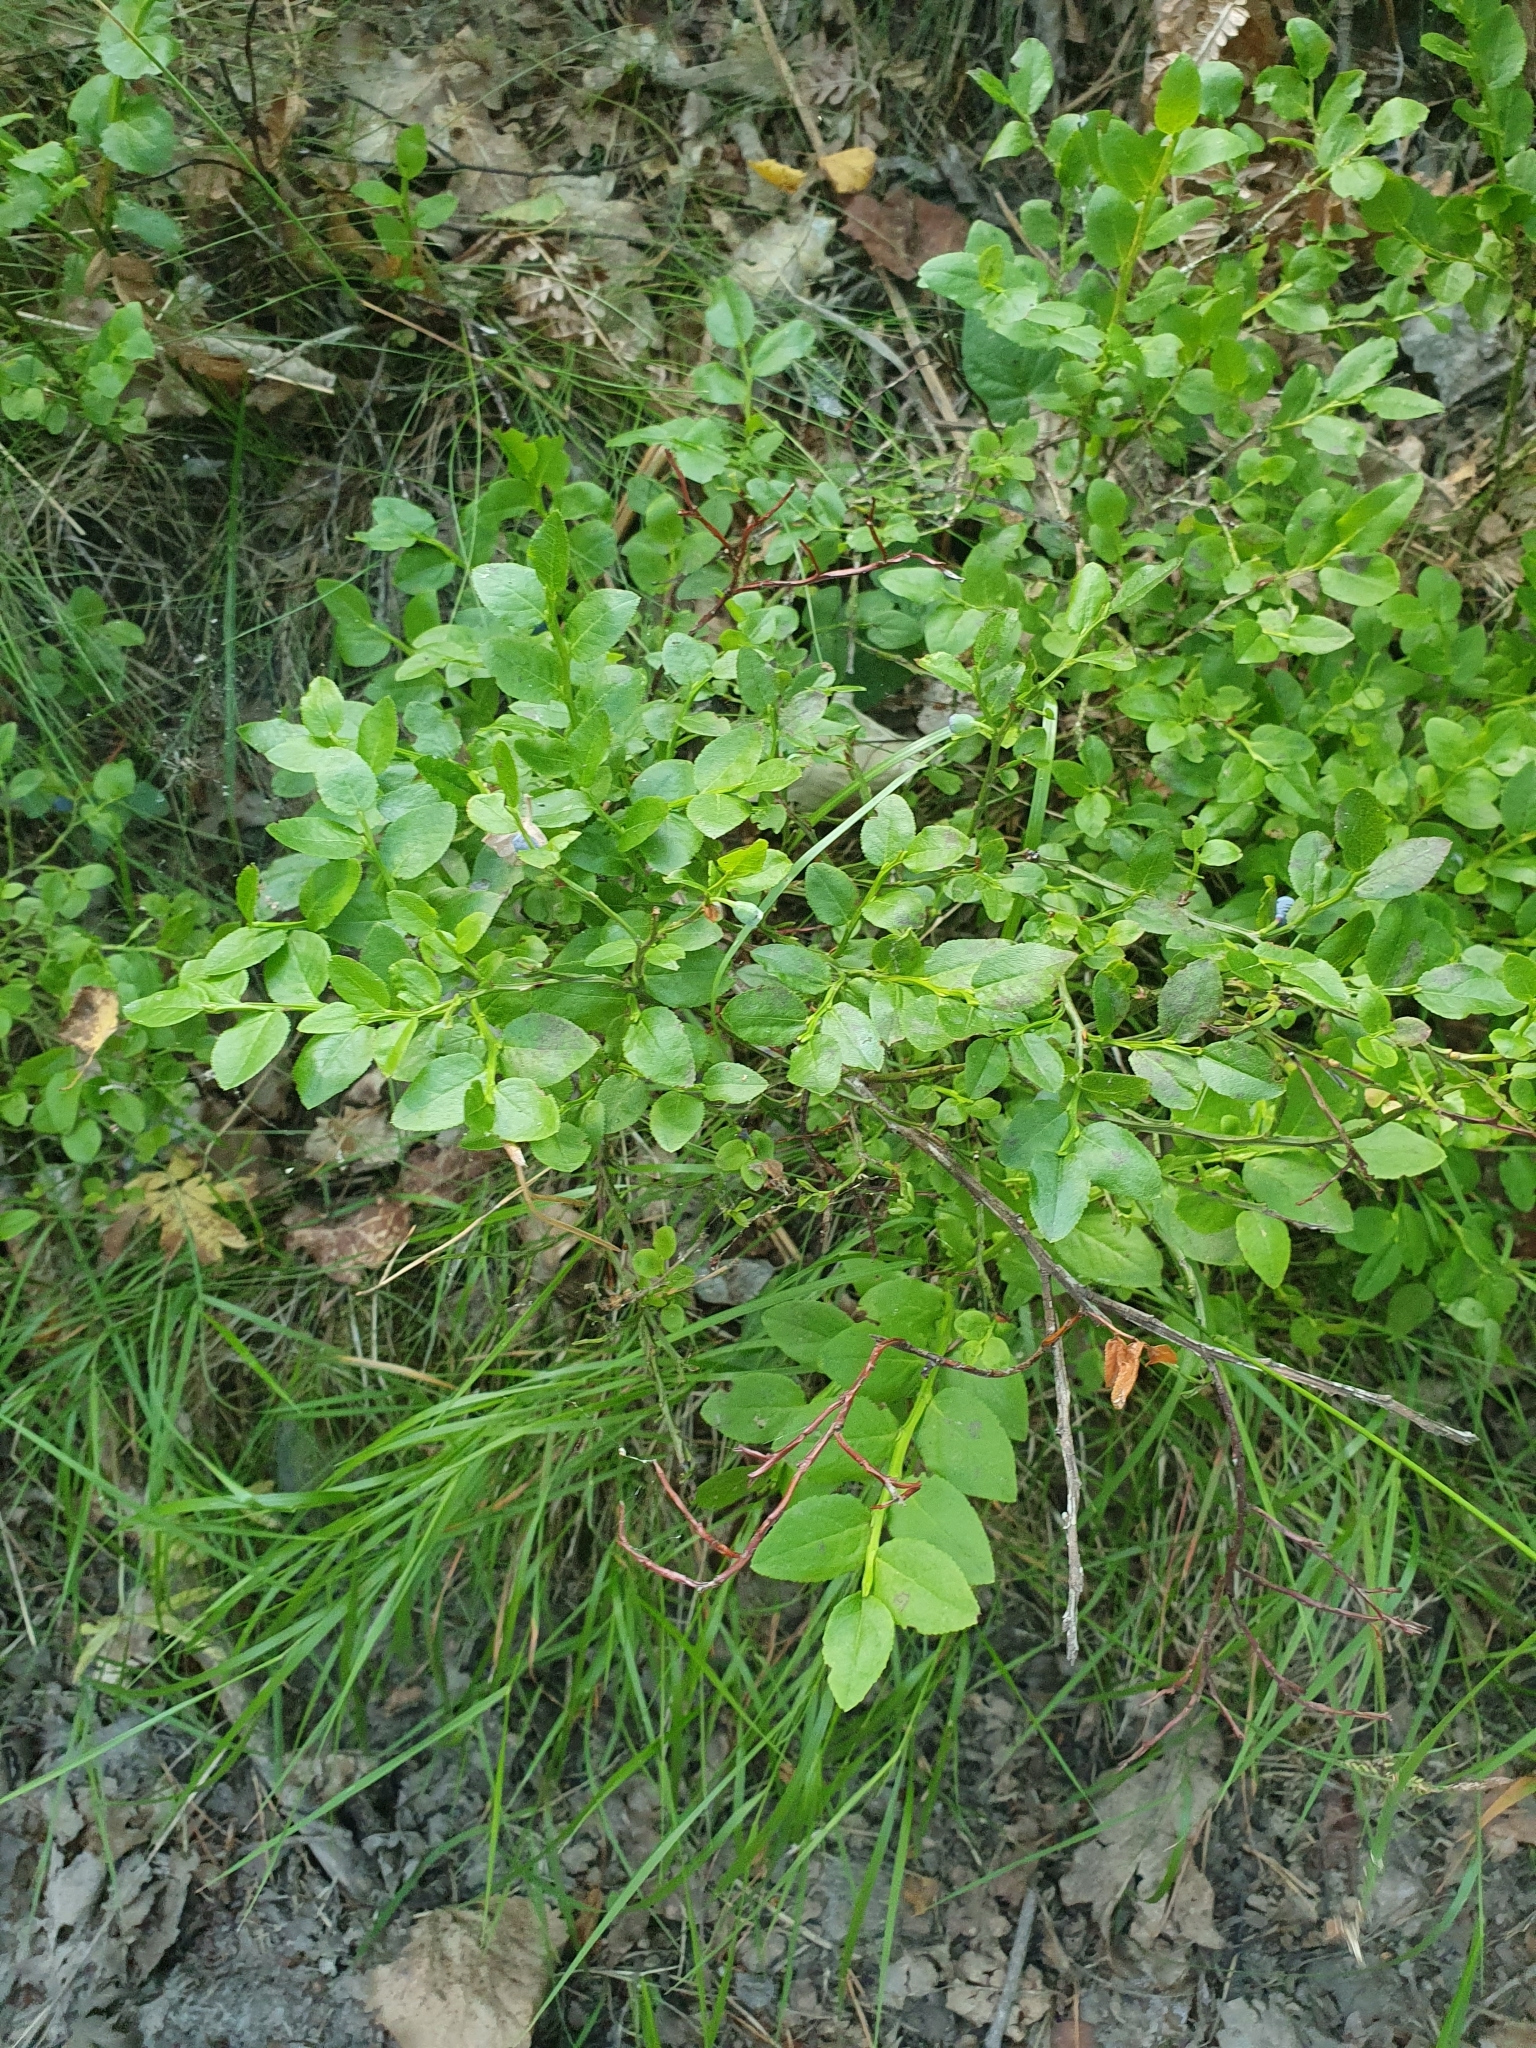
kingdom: Plantae
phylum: Tracheophyta
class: Magnoliopsida
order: Ericales
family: Ericaceae
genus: Vaccinium
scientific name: Vaccinium myrtillus
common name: Bilberry
